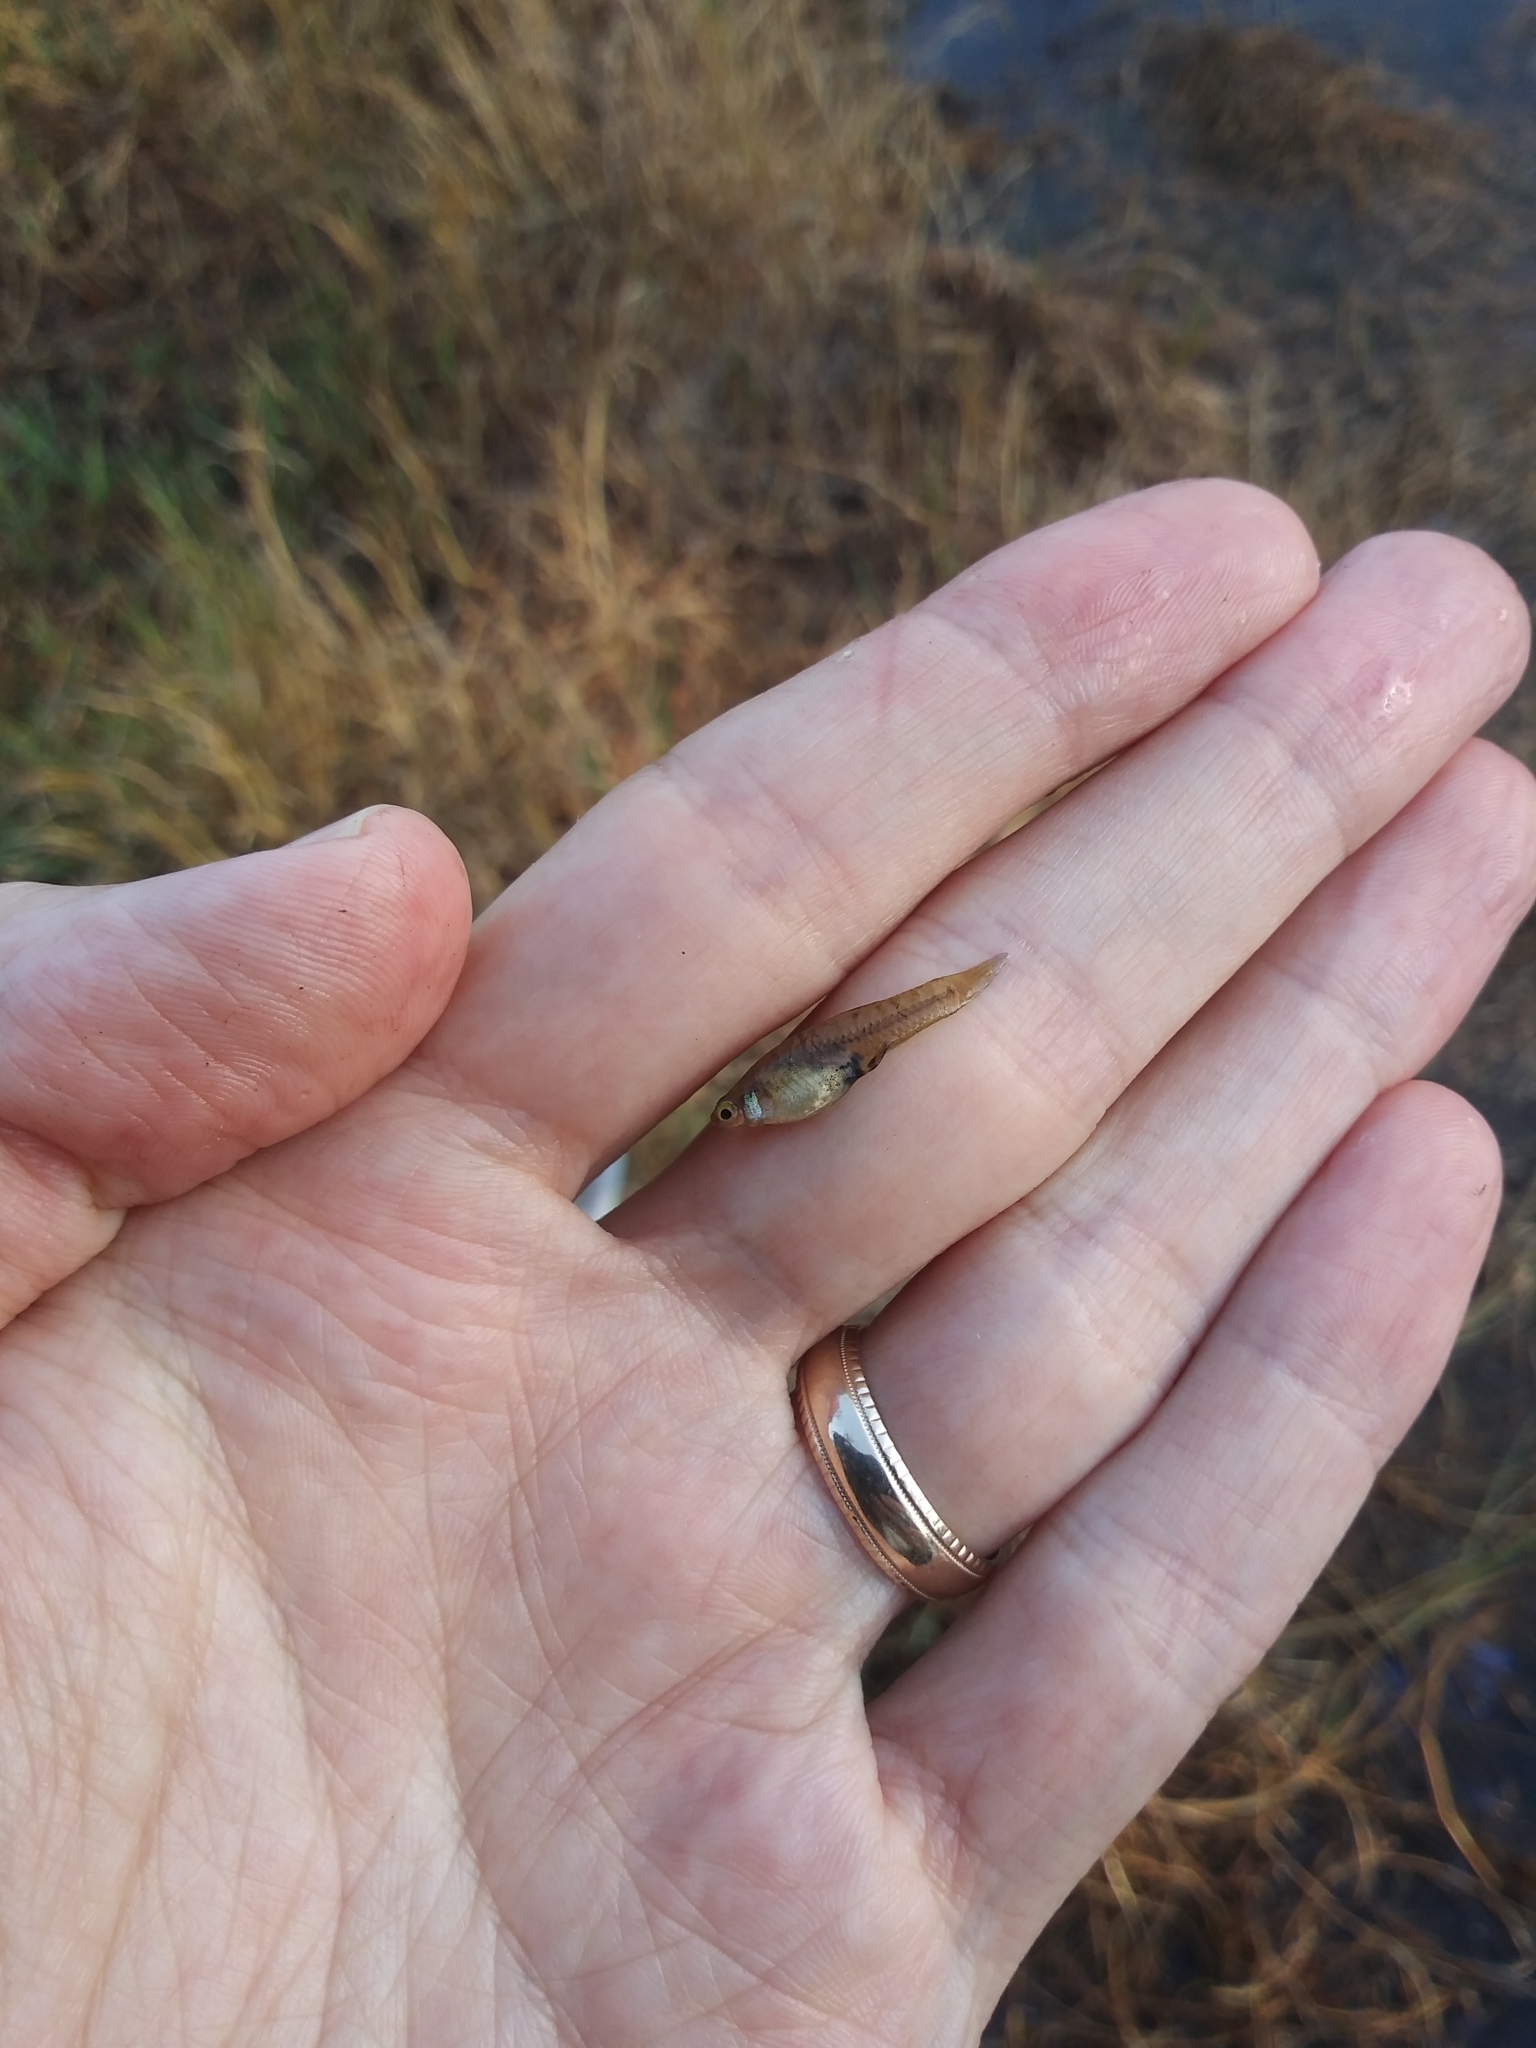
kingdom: Animalia
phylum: Chordata
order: Cyprinodontiformes
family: Poeciliidae
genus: Heterandria
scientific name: Heterandria formosa
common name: Least killifish
